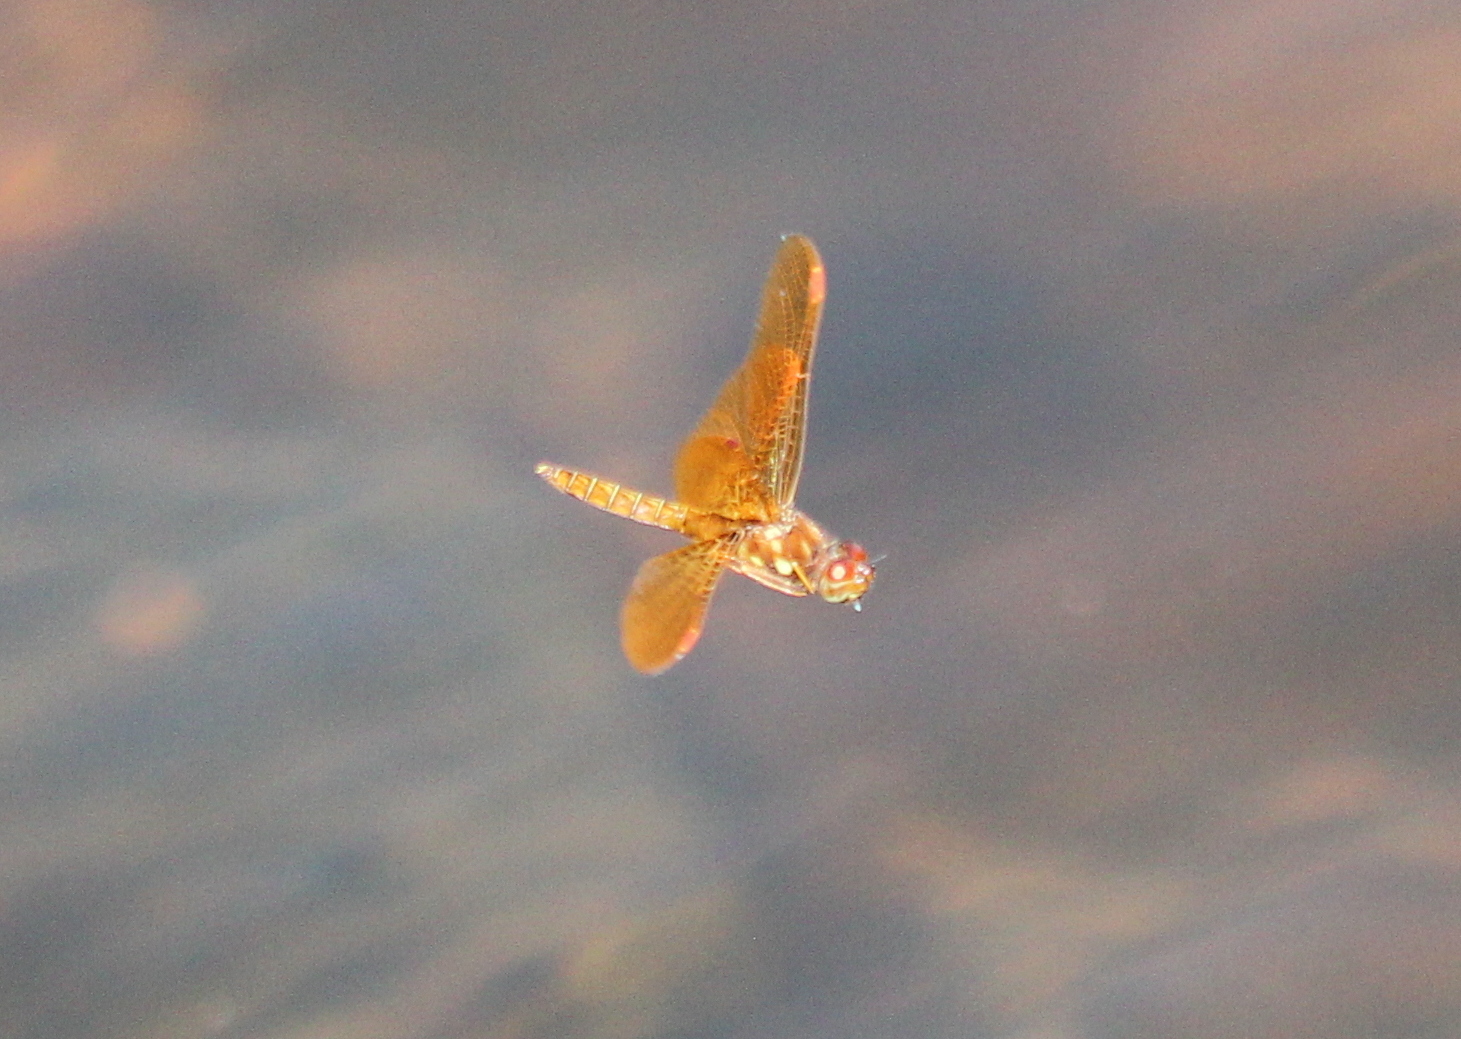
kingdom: Animalia
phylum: Arthropoda
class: Insecta
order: Odonata
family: Libellulidae
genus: Perithemis
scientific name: Perithemis tenera
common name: Eastern amberwing
